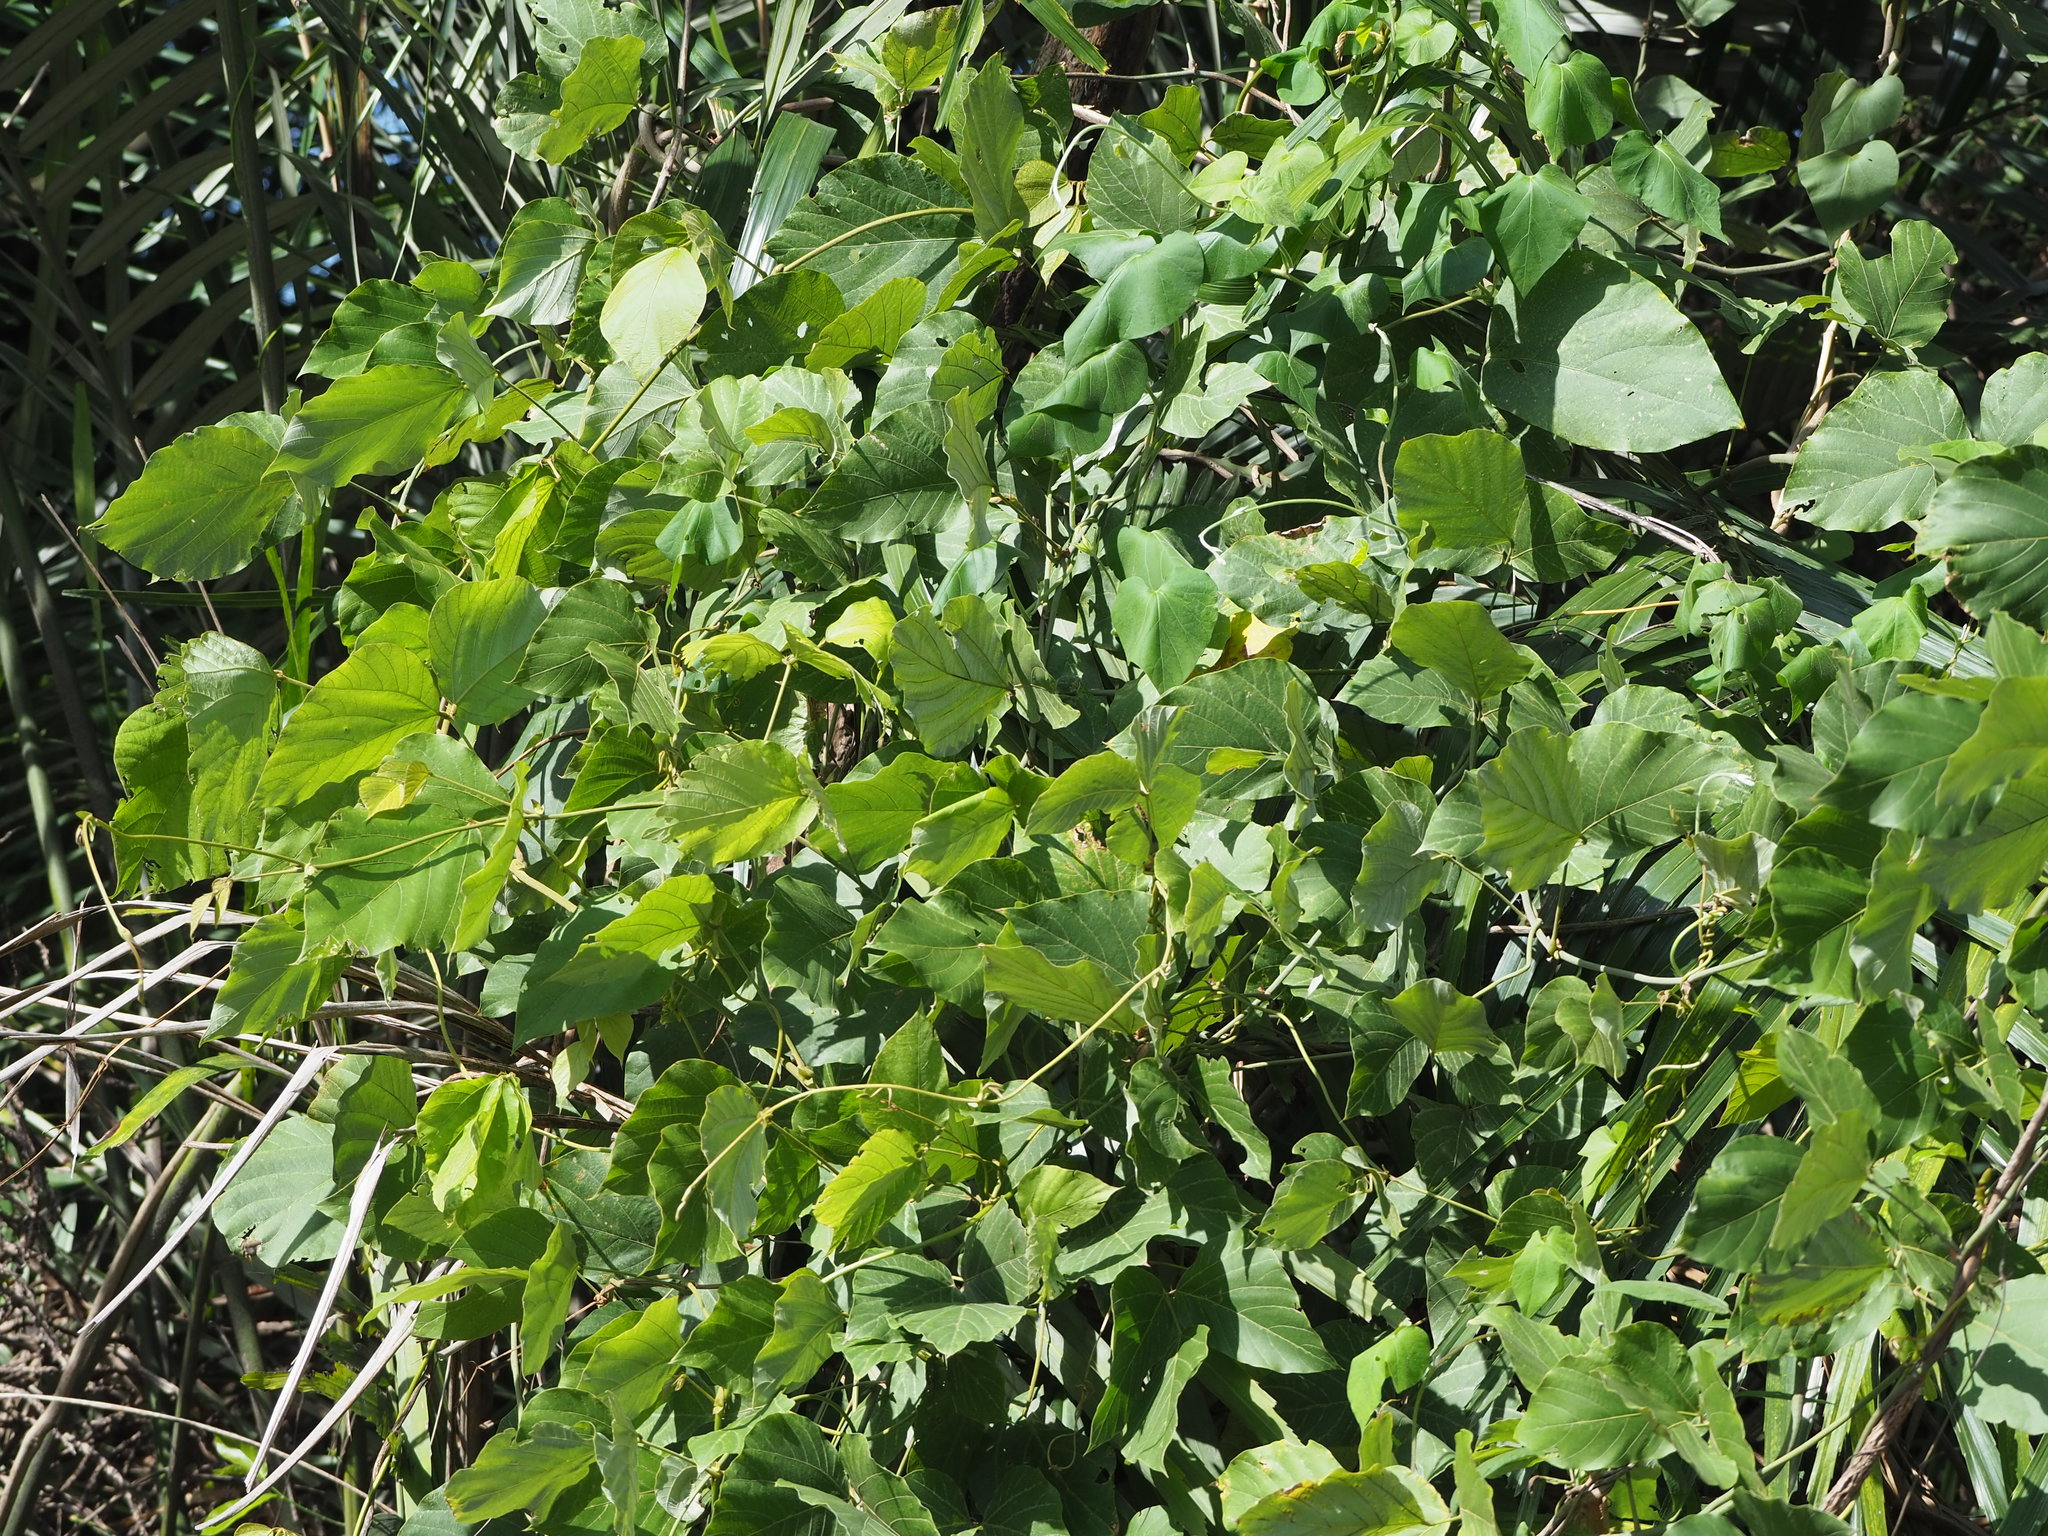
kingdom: Plantae
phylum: Tracheophyta
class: Magnoliopsida
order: Fabales
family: Fabaceae
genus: Pueraria
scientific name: Pueraria montana
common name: Kudzu
